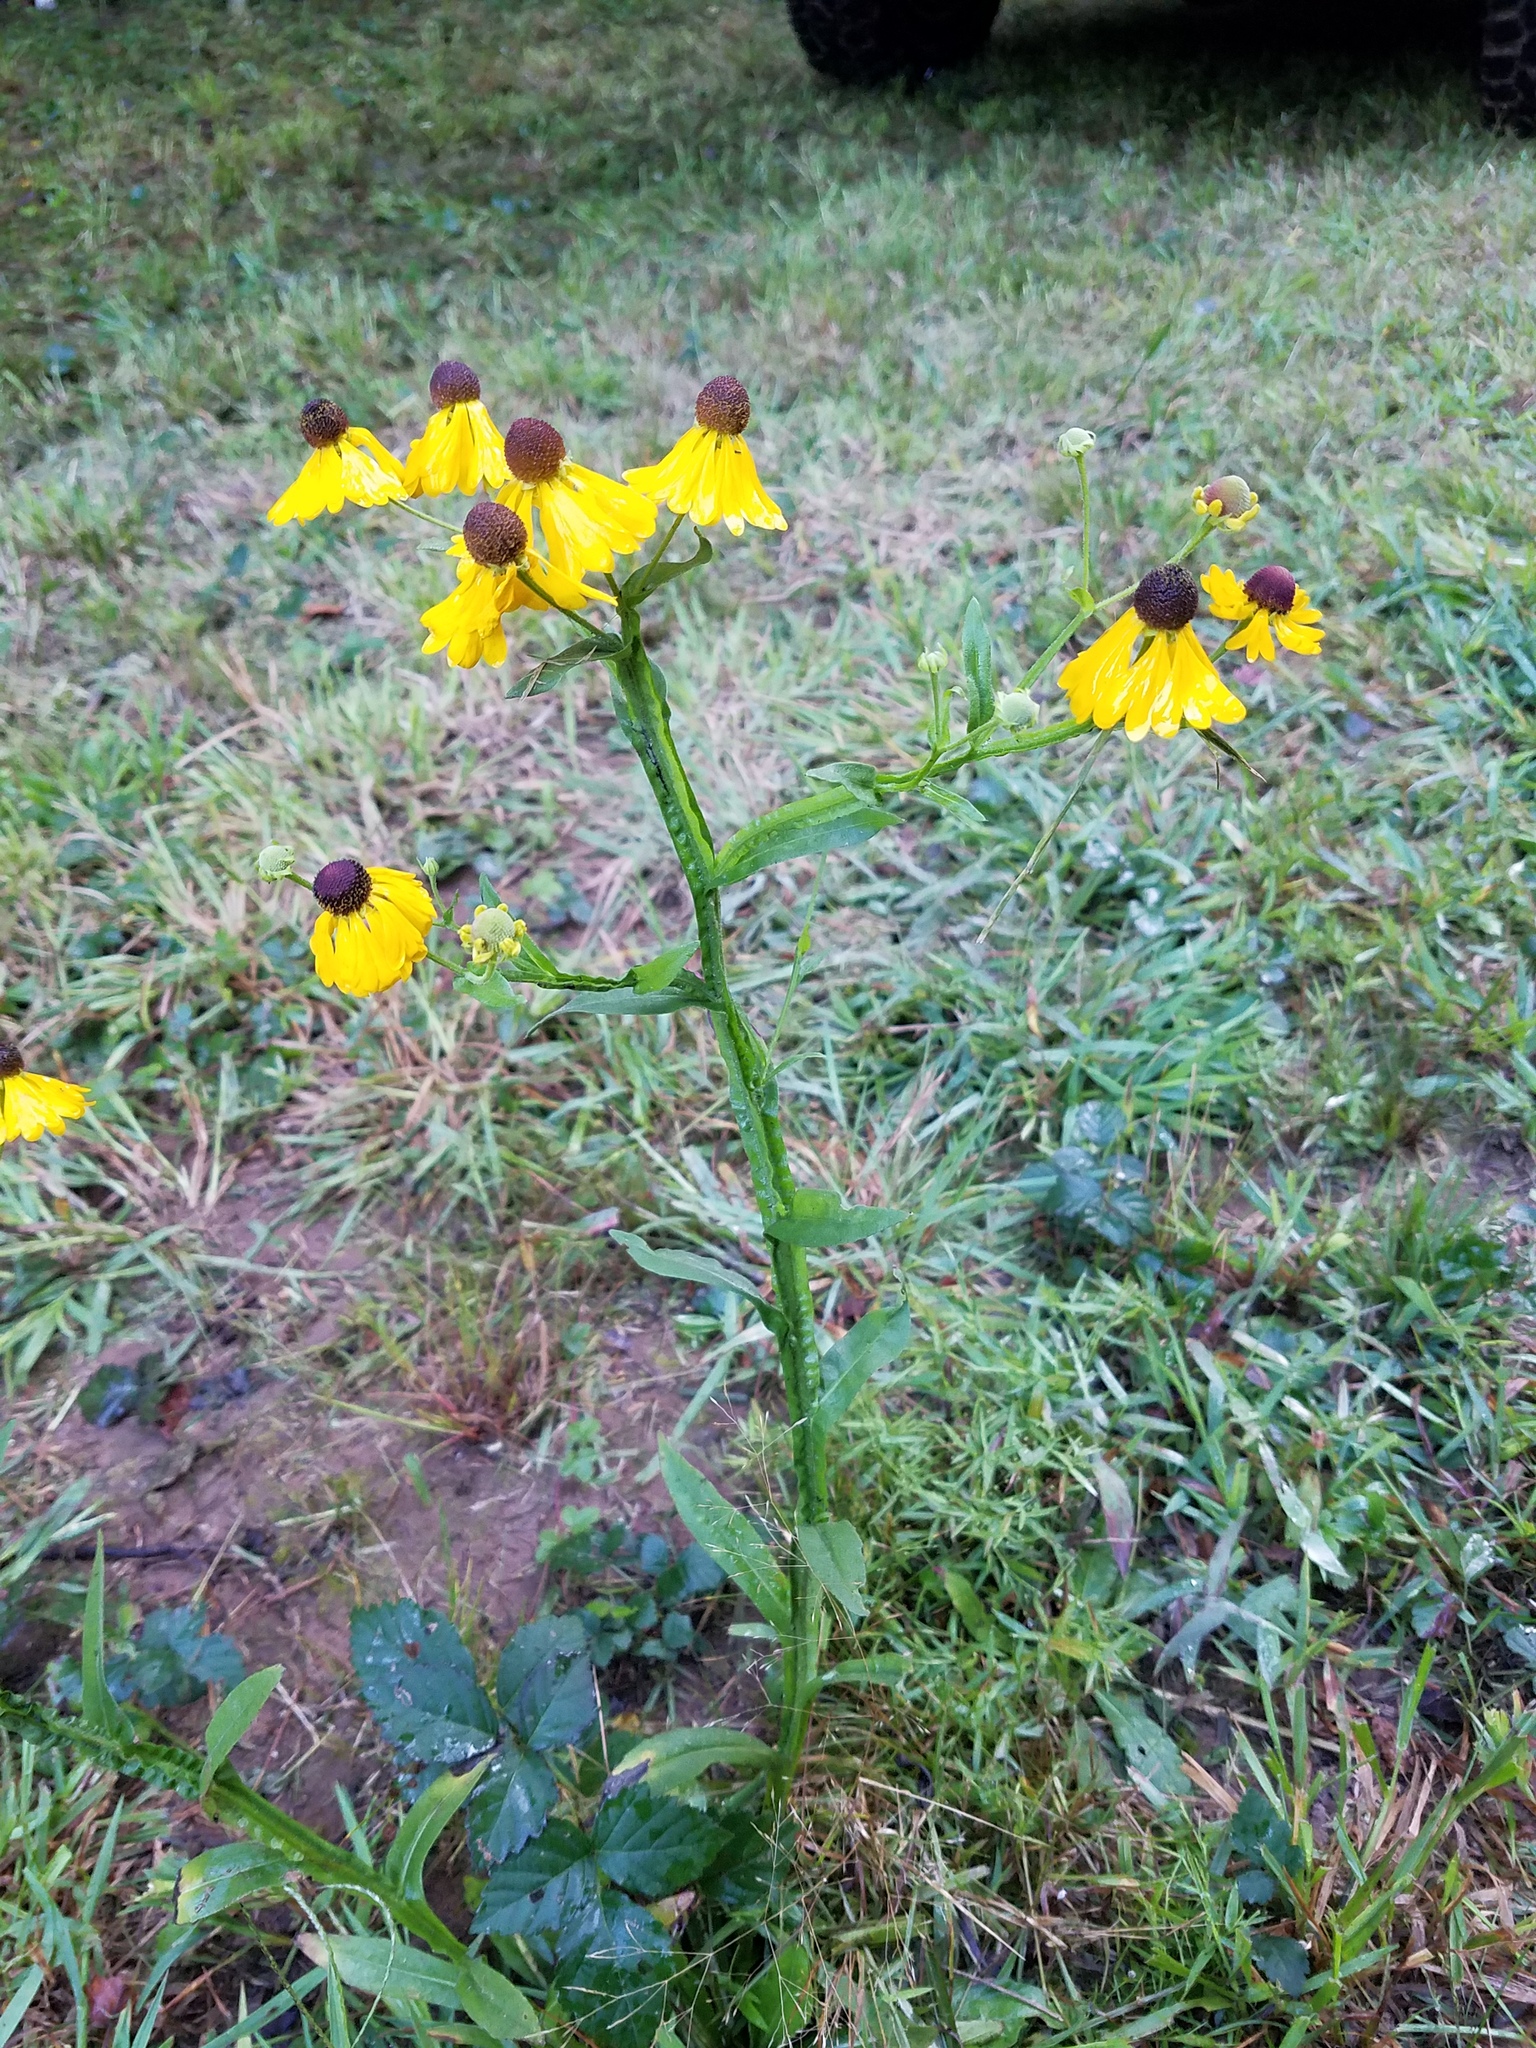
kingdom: Plantae
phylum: Tracheophyta
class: Magnoliopsida
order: Asterales
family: Asteraceae
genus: Helenium
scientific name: Helenium flexuosum
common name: Naked-flowered sneezeweed
